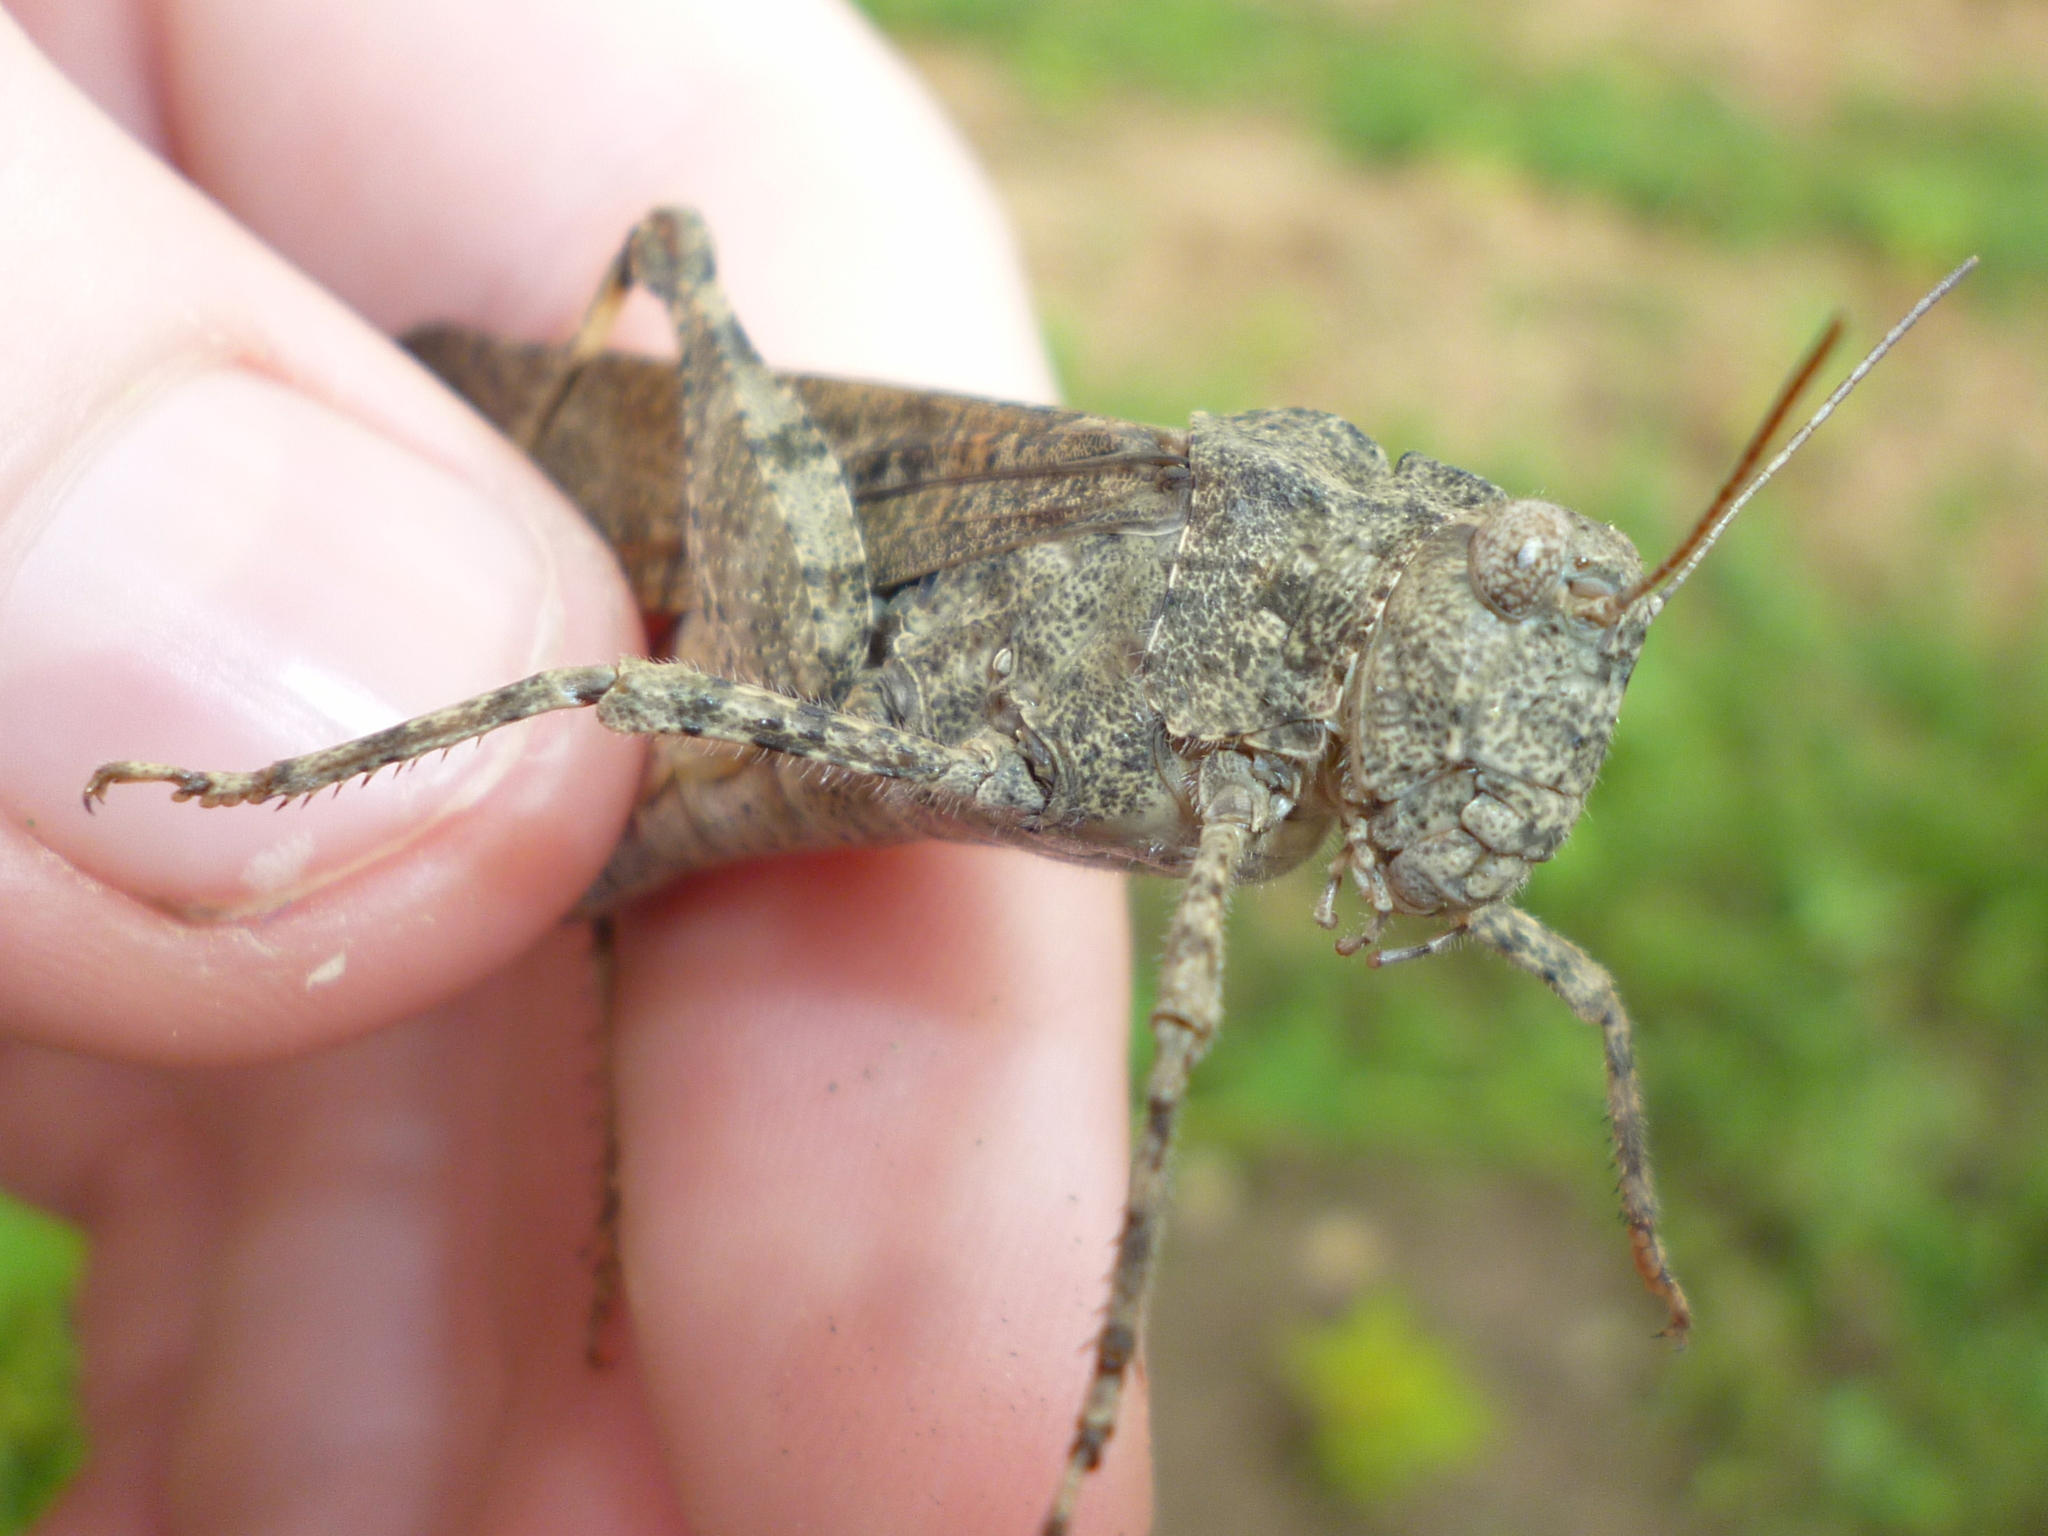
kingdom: Animalia
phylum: Arthropoda
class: Insecta
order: Orthoptera
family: Acrididae
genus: Dissosteira
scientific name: Dissosteira carolina
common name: Carolina grasshopper
